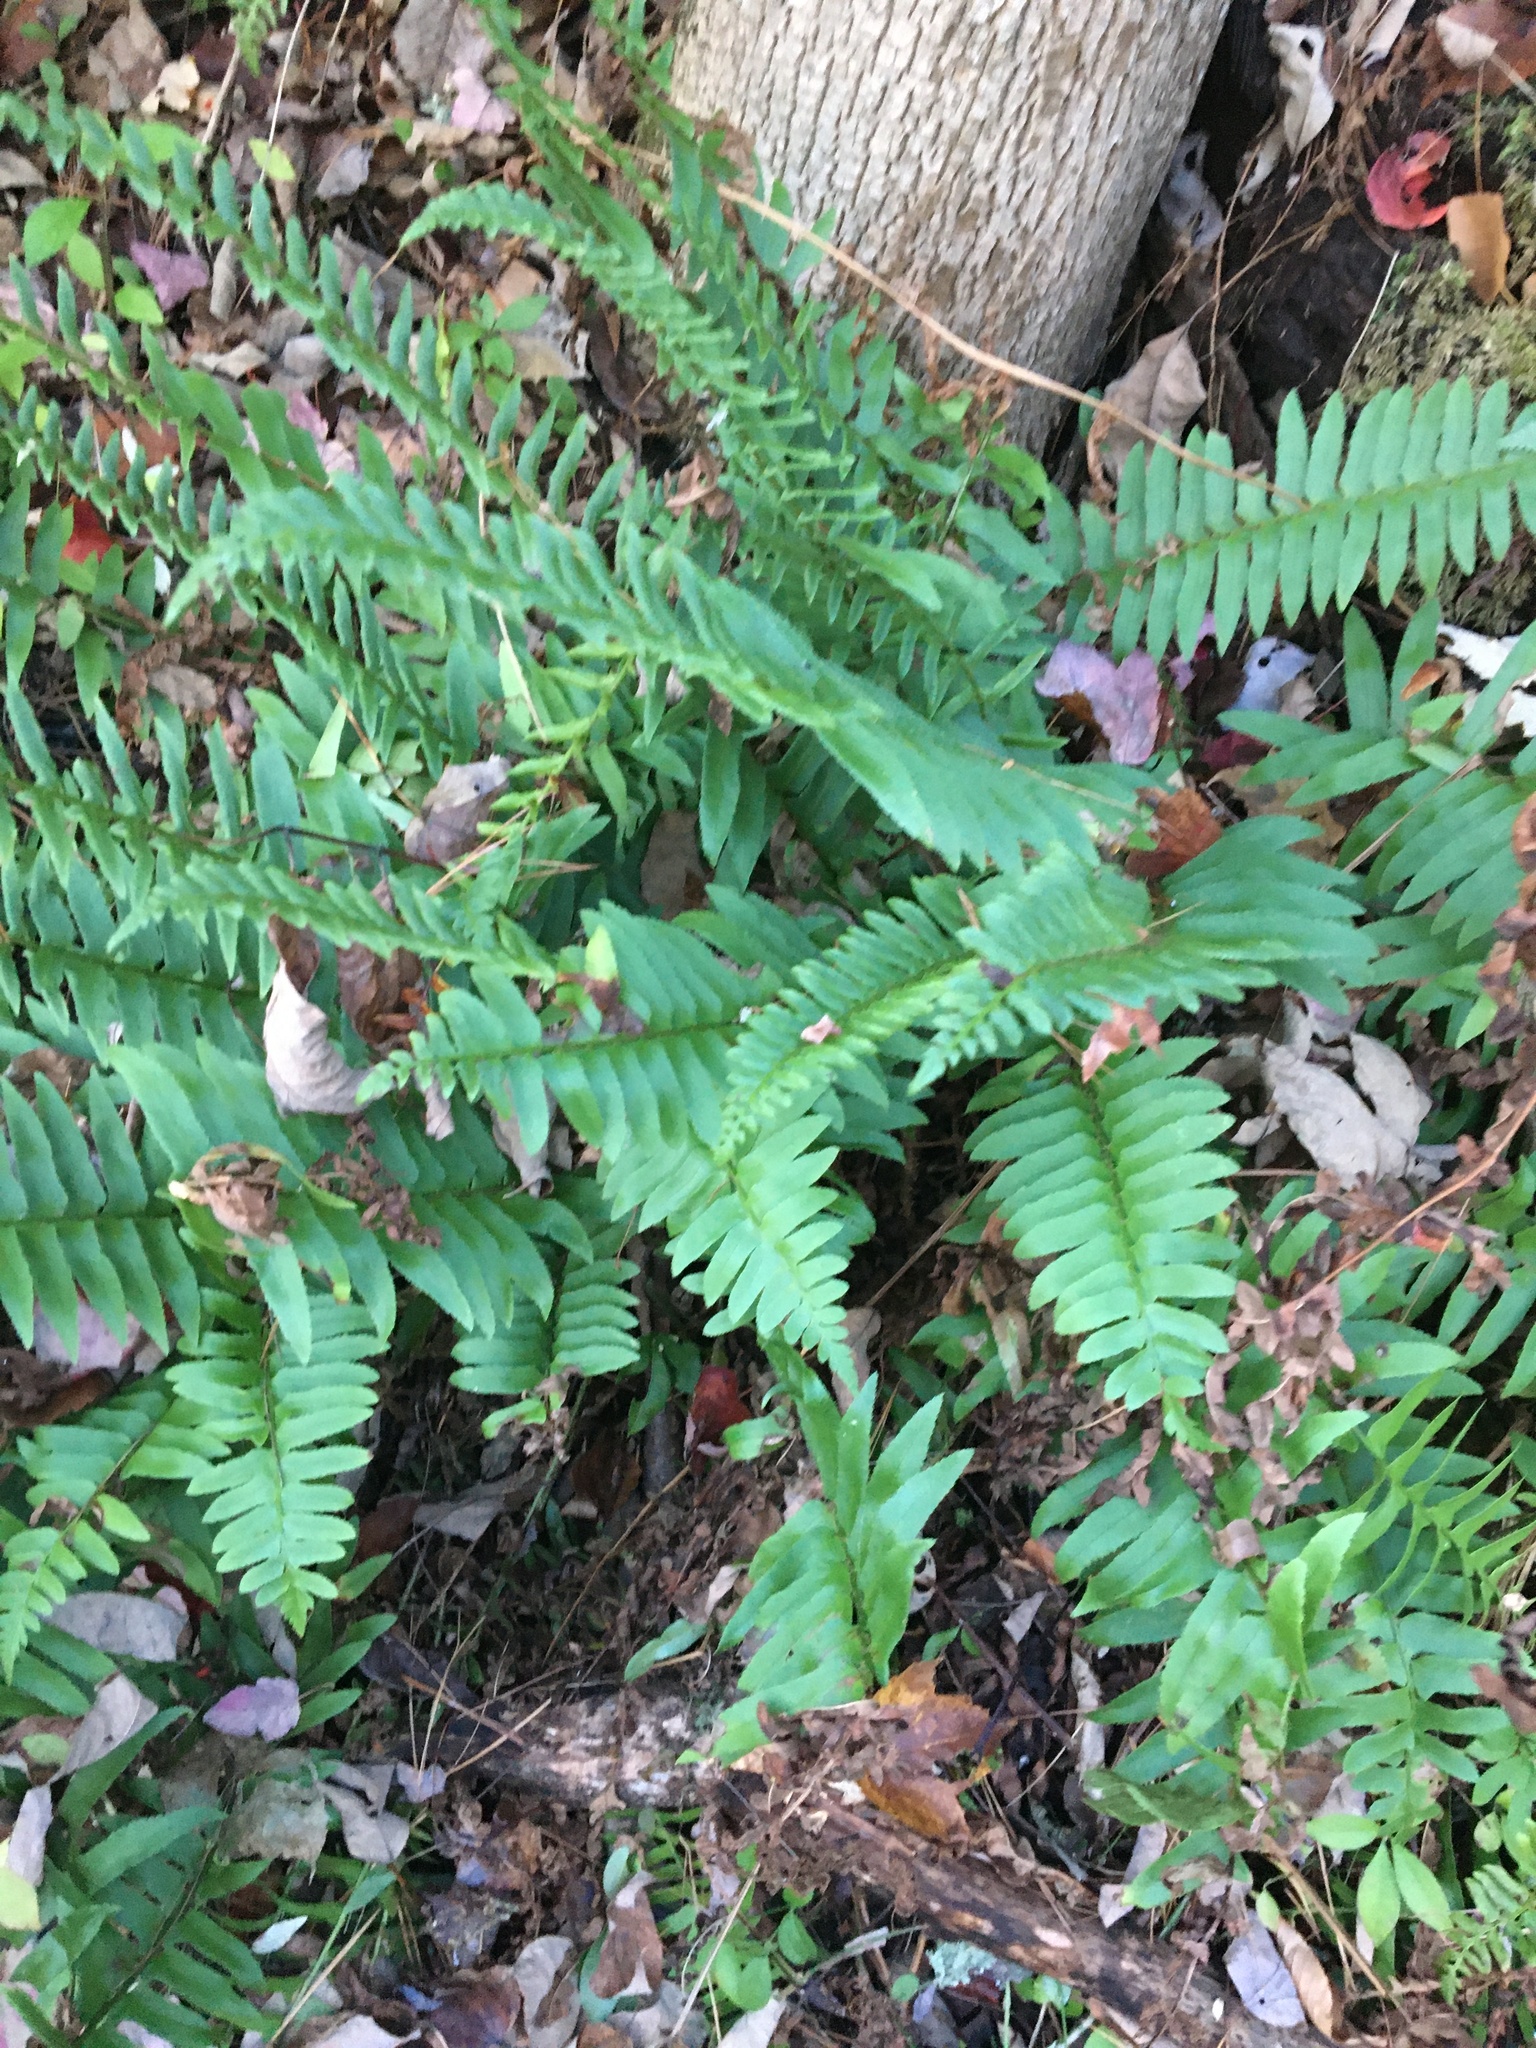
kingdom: Plantae
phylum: Tracheophyta
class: Polypodiopsida
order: Polypodiales
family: Dryopteridaceae
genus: Polystichum
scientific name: Polystichum acrostichoides
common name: Christmas fern
